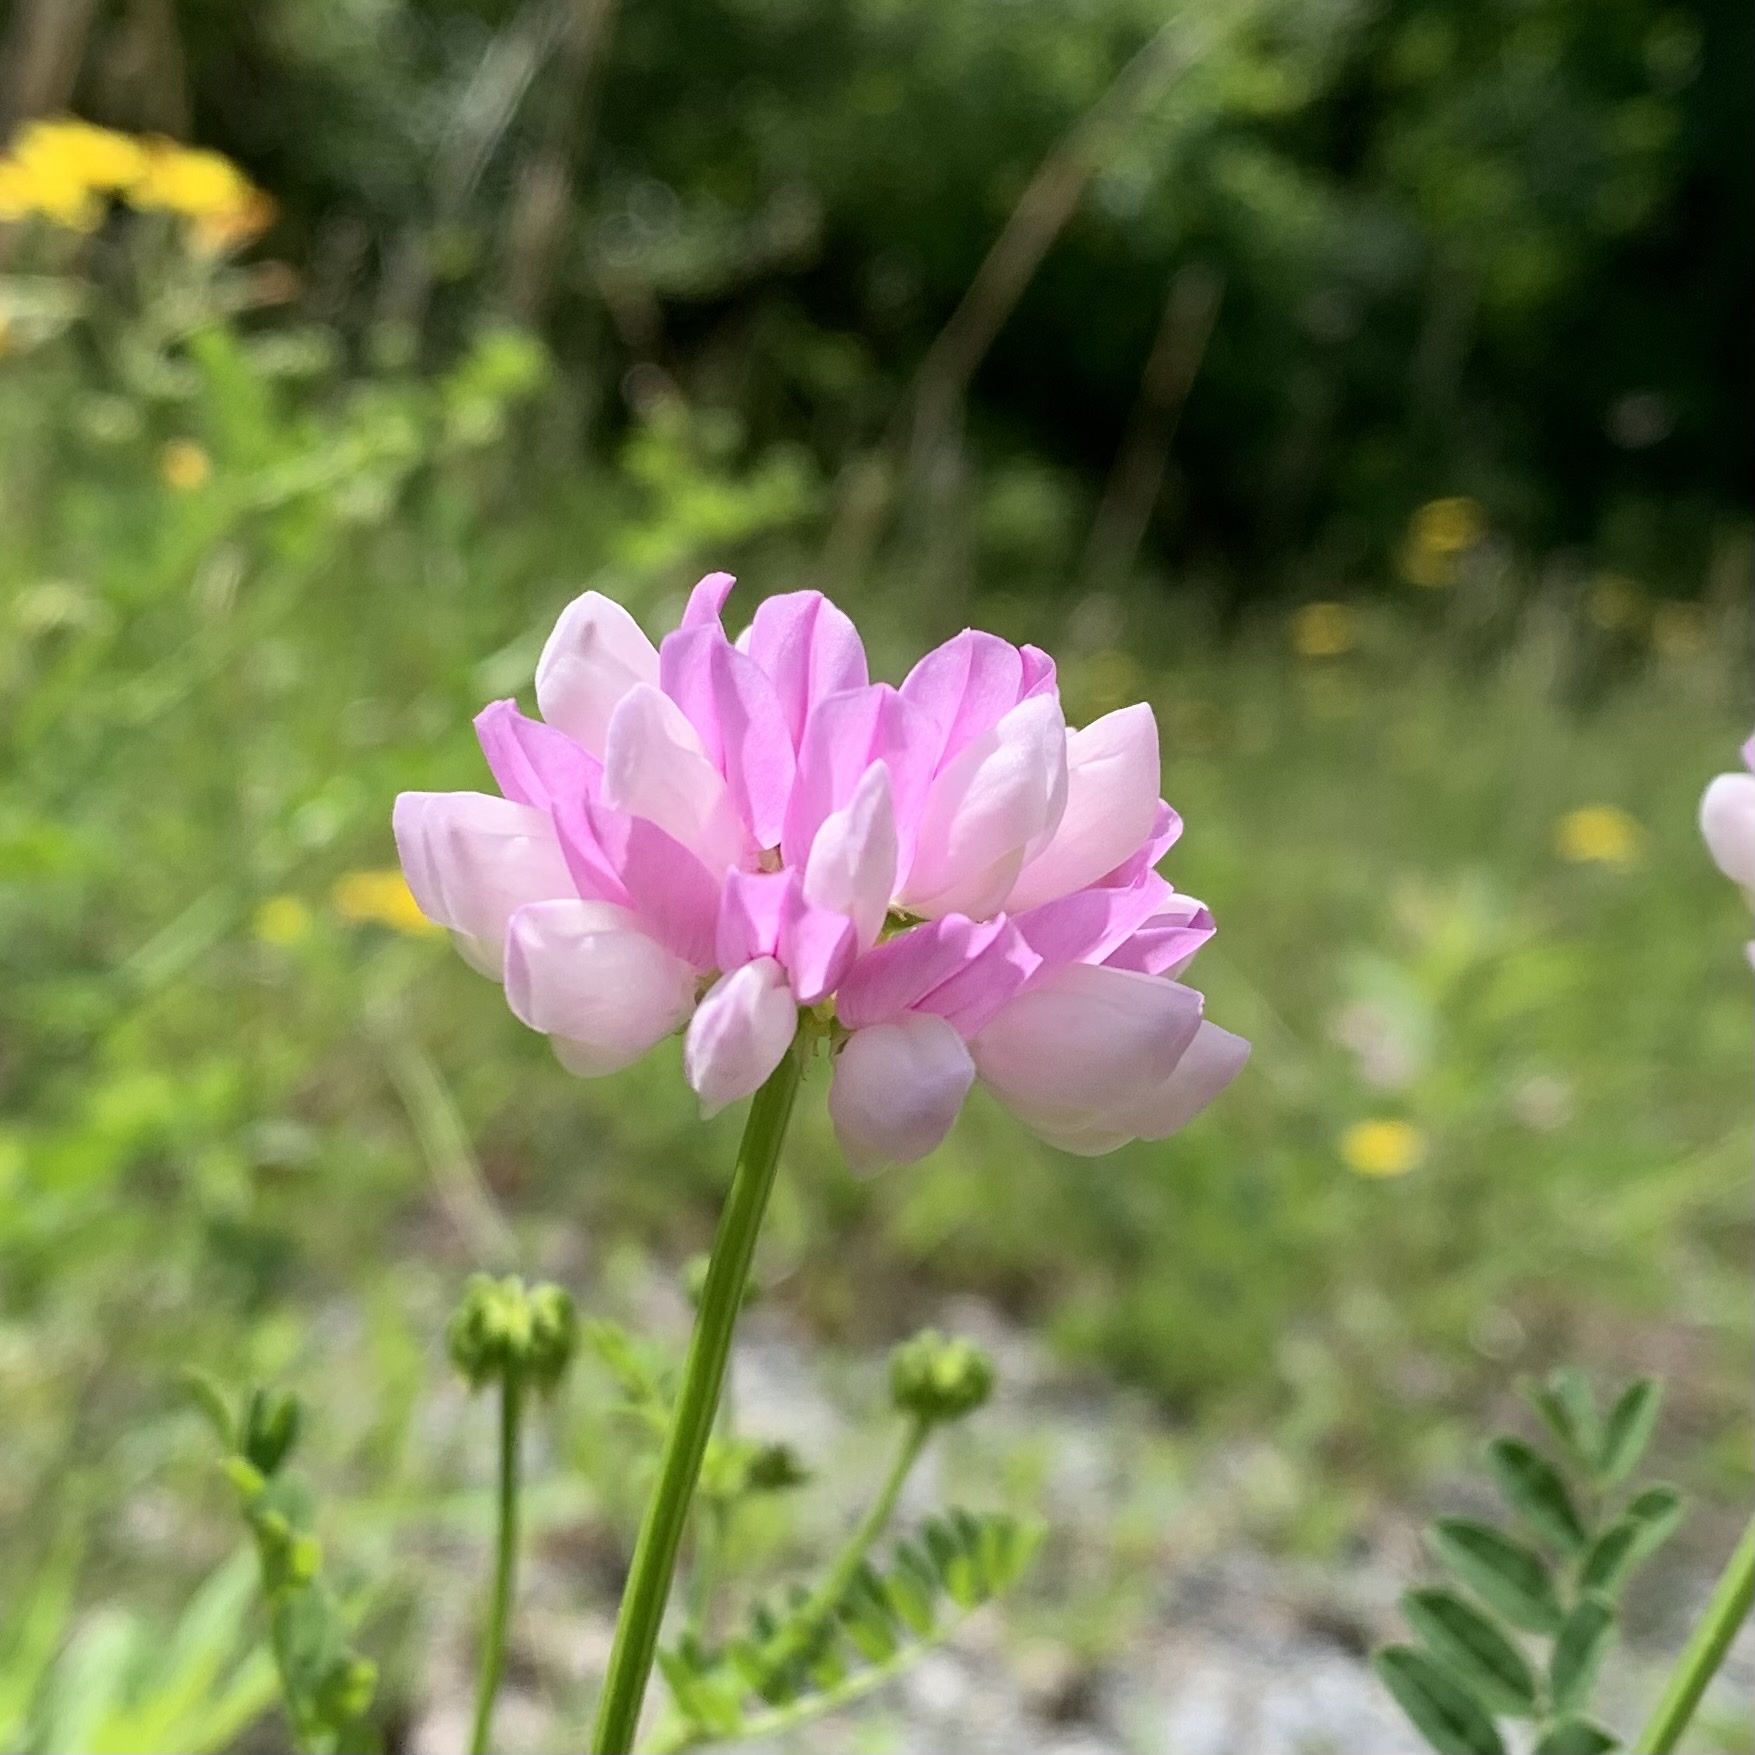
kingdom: Plantae
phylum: Tracheophyta
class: Magnoliopsida
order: Fabales
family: Fabaceae
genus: Coronilla
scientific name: Coronilla varia
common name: Crownvetch
